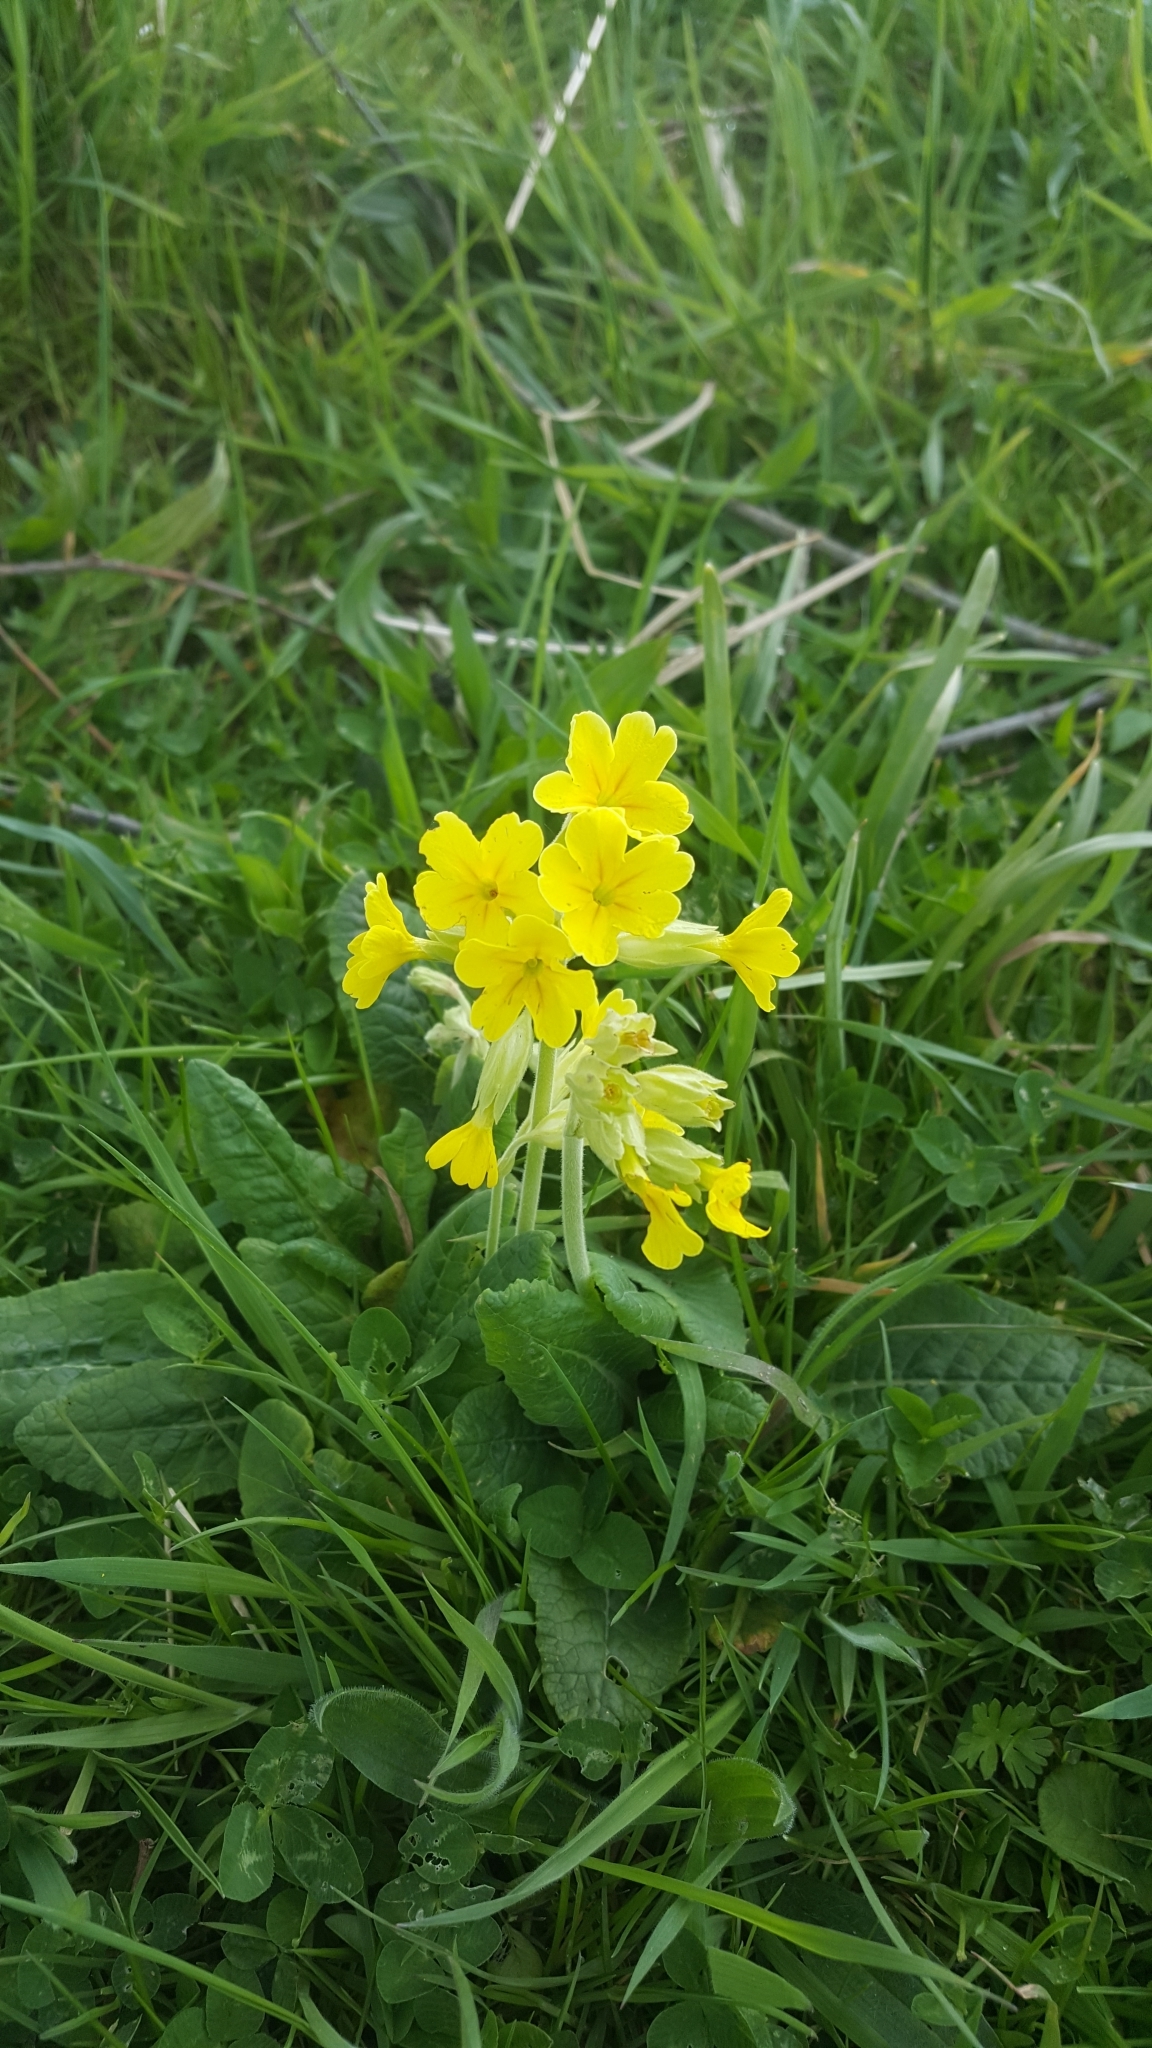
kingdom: Plantae
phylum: Tracheophyta
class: Magnoliopsida
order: Ericales
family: Primulaceae
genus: Primula
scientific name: Primula veris
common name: Cowslip
